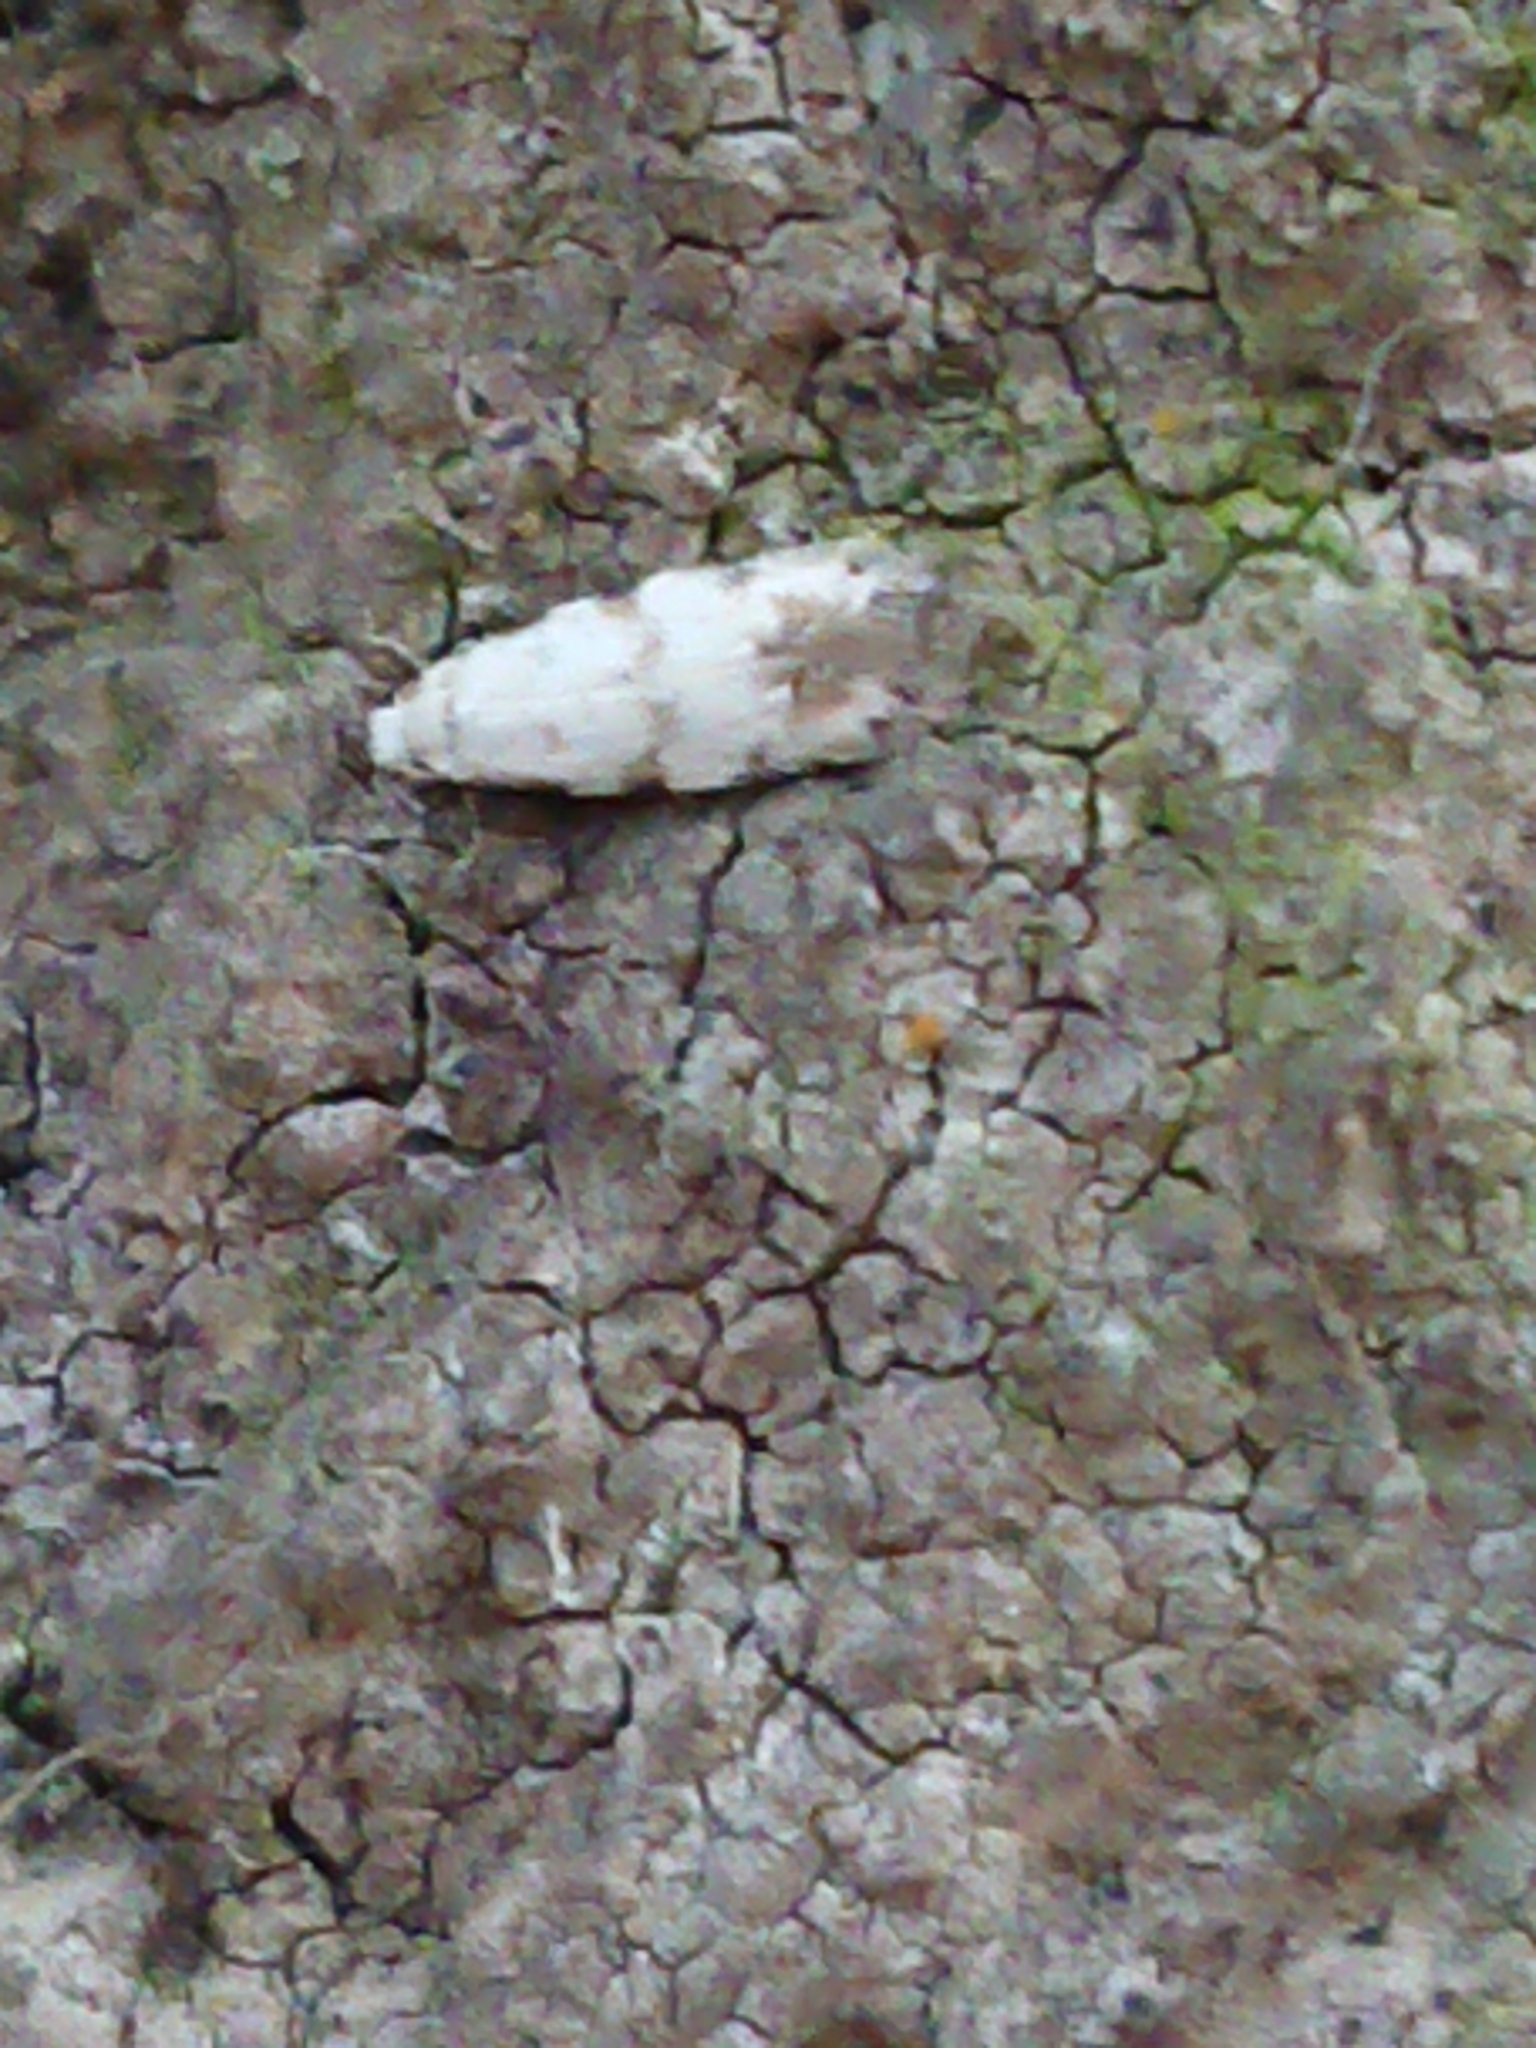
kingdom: Animalia
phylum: Arthropoda
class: Insecta
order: Lepidoptera
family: Tineidae
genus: Crypsitricha
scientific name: Crypsitricha stereota
